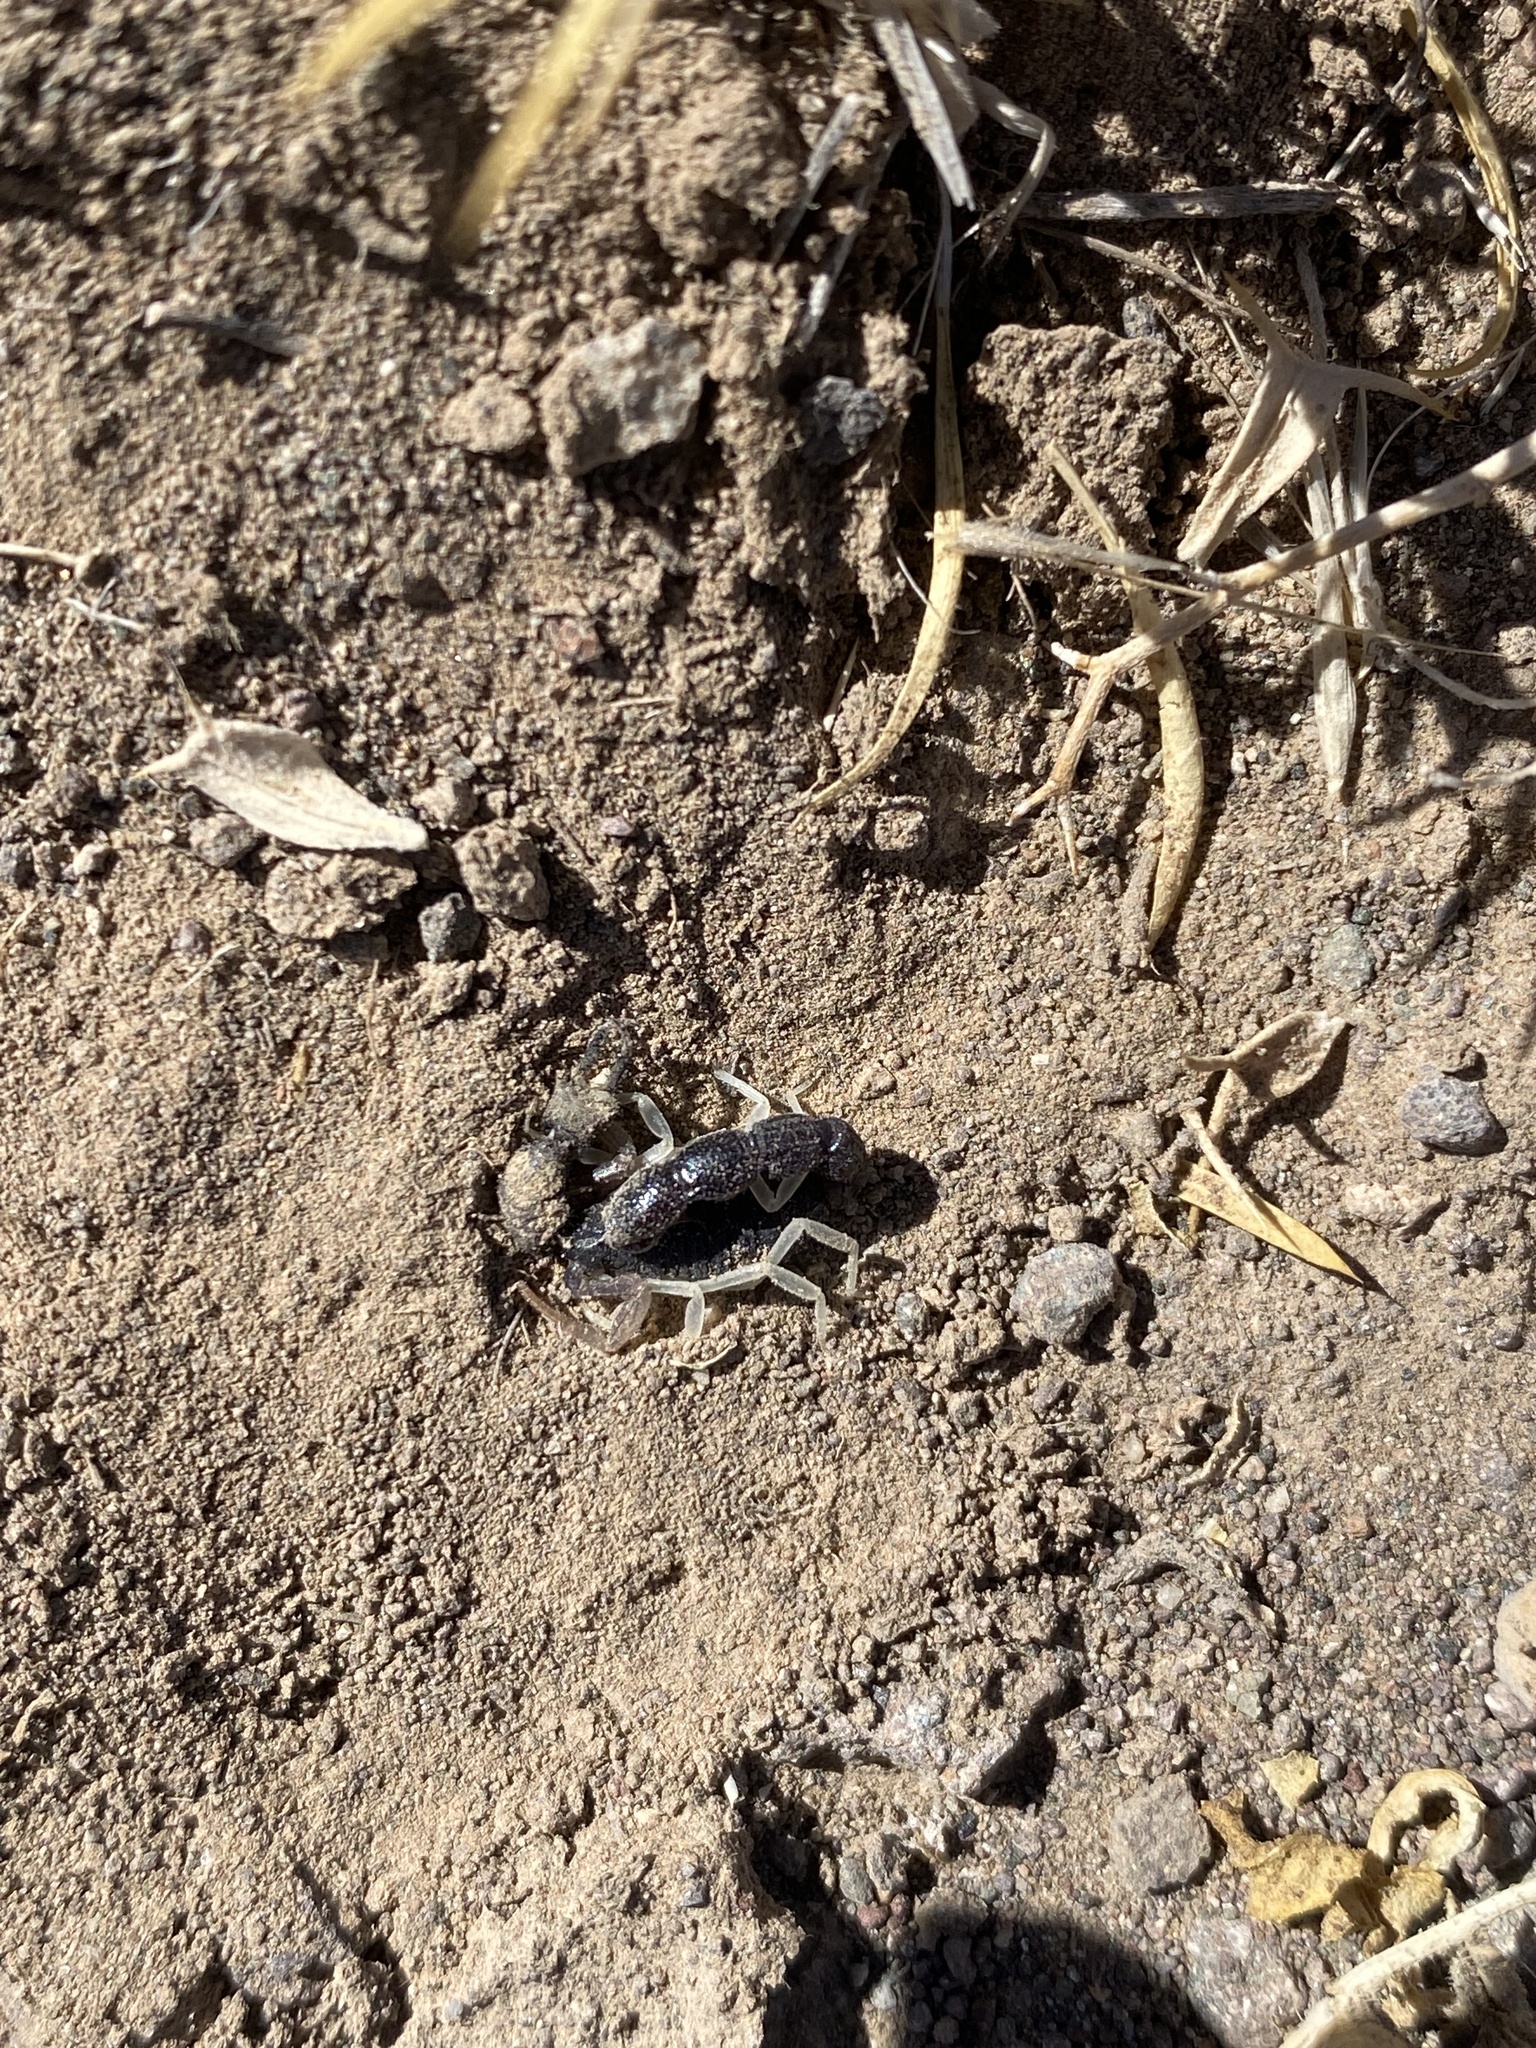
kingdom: Animalia
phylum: Arthropoda
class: Arachnida
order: Scorpiones
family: Buthidae
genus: Orthochirus
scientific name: Orthochirus formozovi
